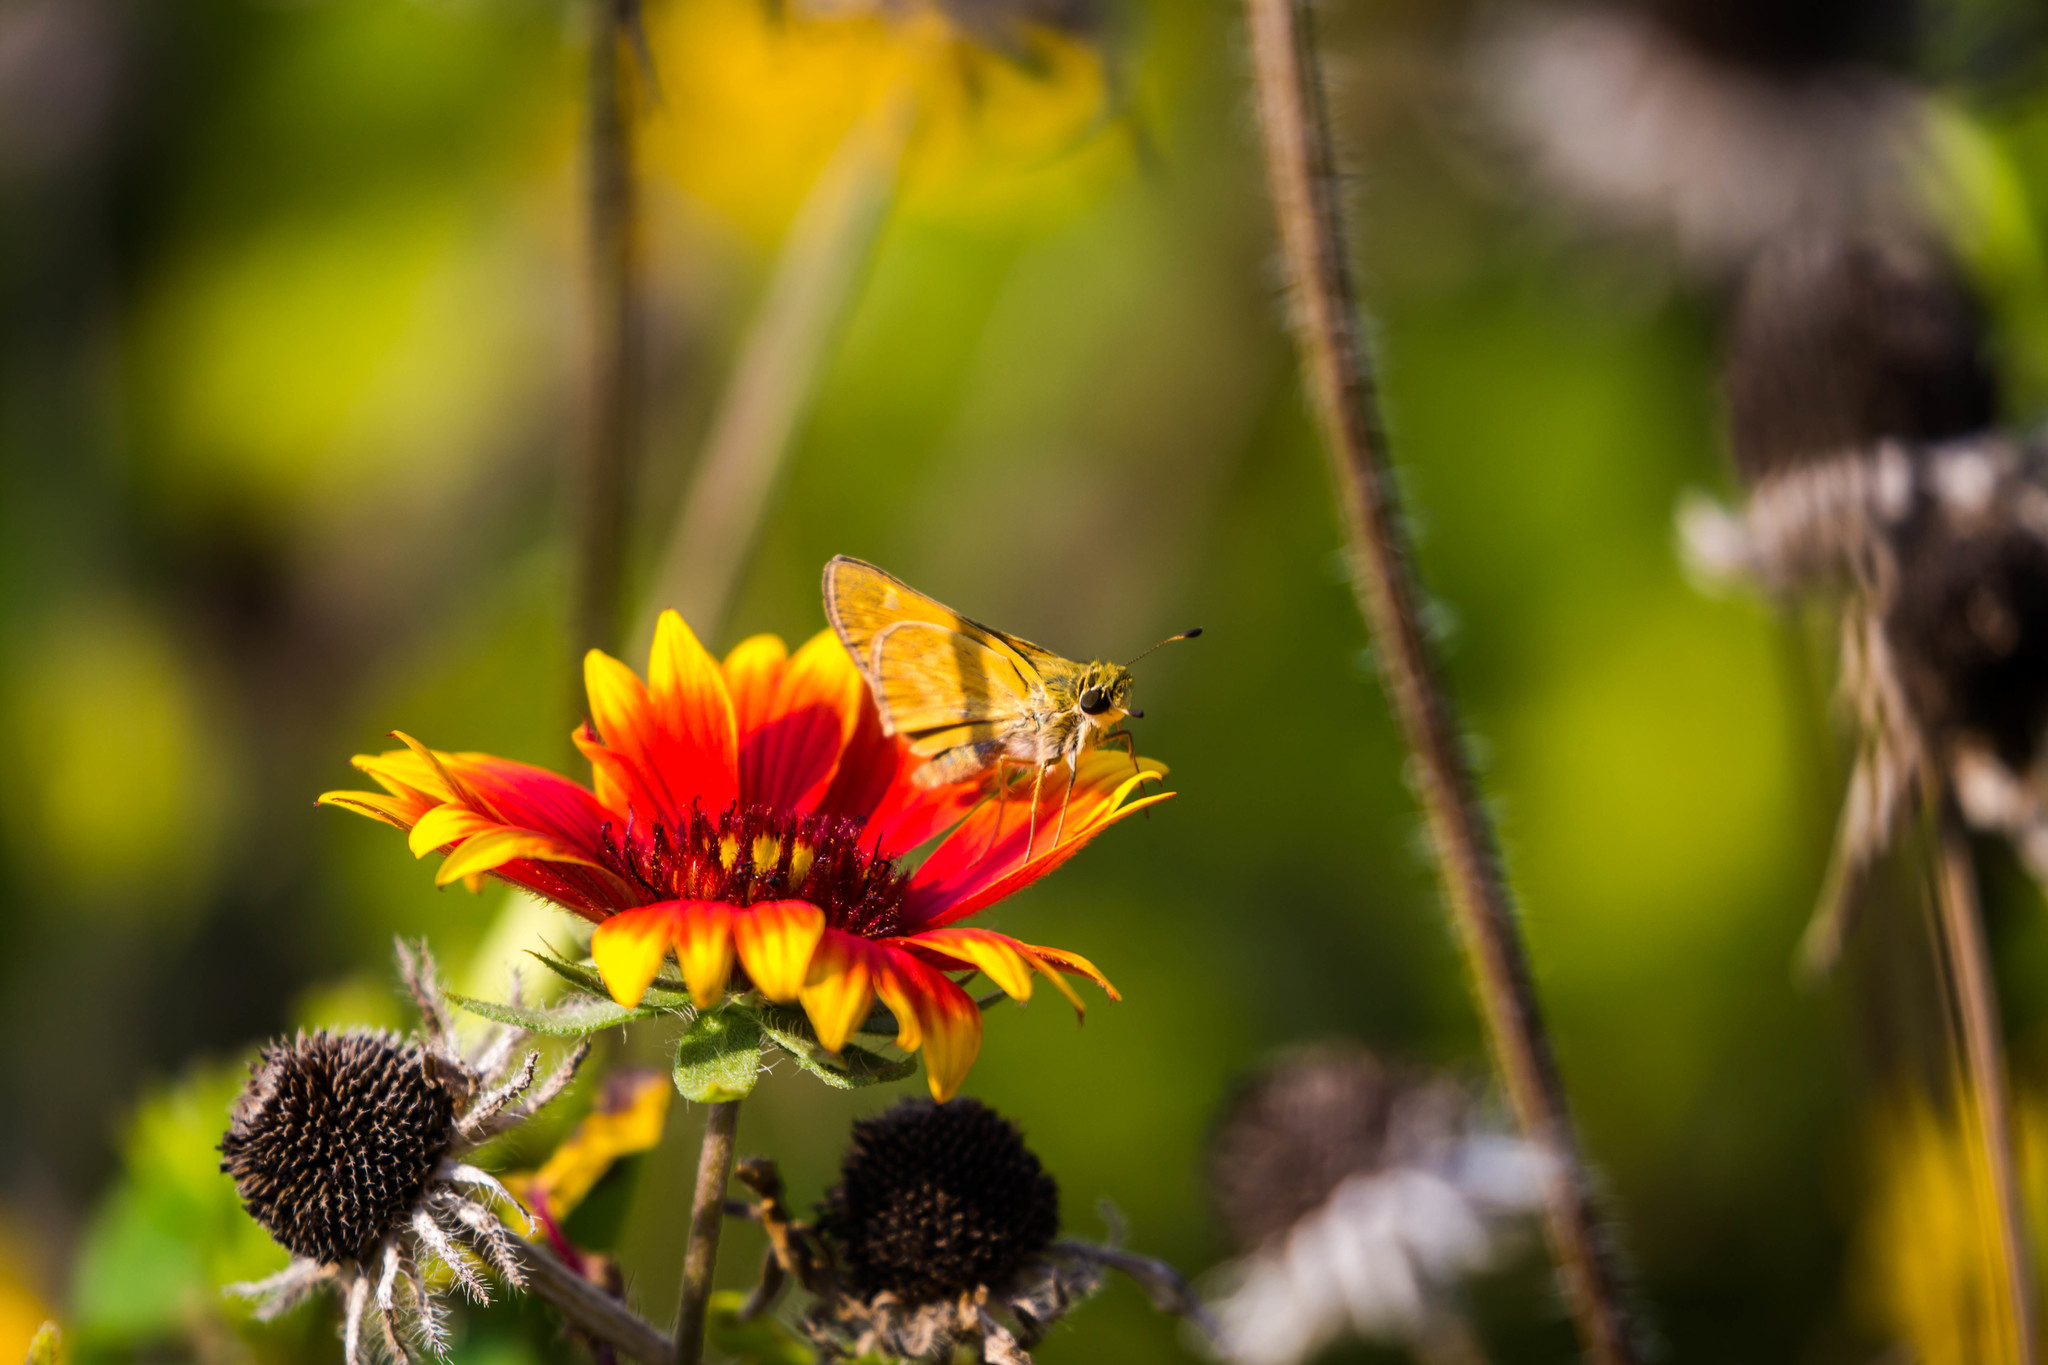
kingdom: Animalia
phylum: Arthropoda
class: Insecta
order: Lepidoptera
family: Hesperiidae
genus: Atalopedes
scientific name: Atalopedes
